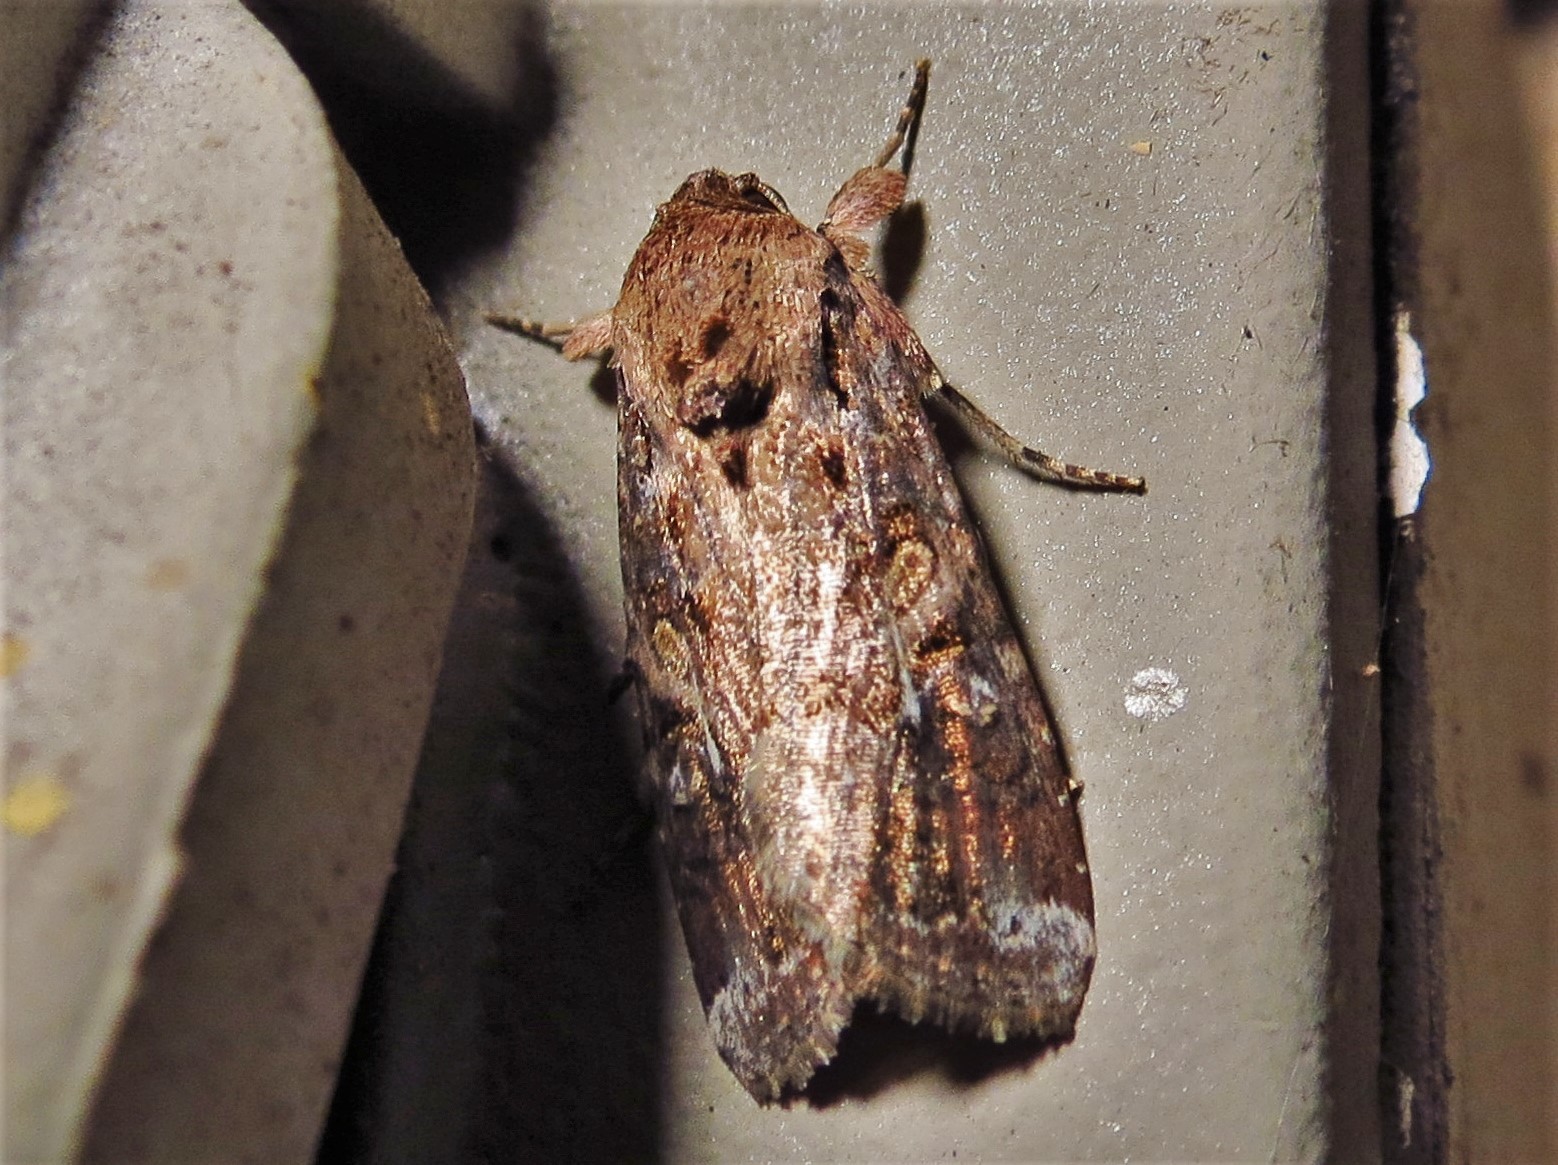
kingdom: Animalia
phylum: Arthropoda
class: Insecta
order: Lepidoptera
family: Noctuidae
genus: Spodoptera
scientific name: Spodoptera frugiperda
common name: Fall armyworm
